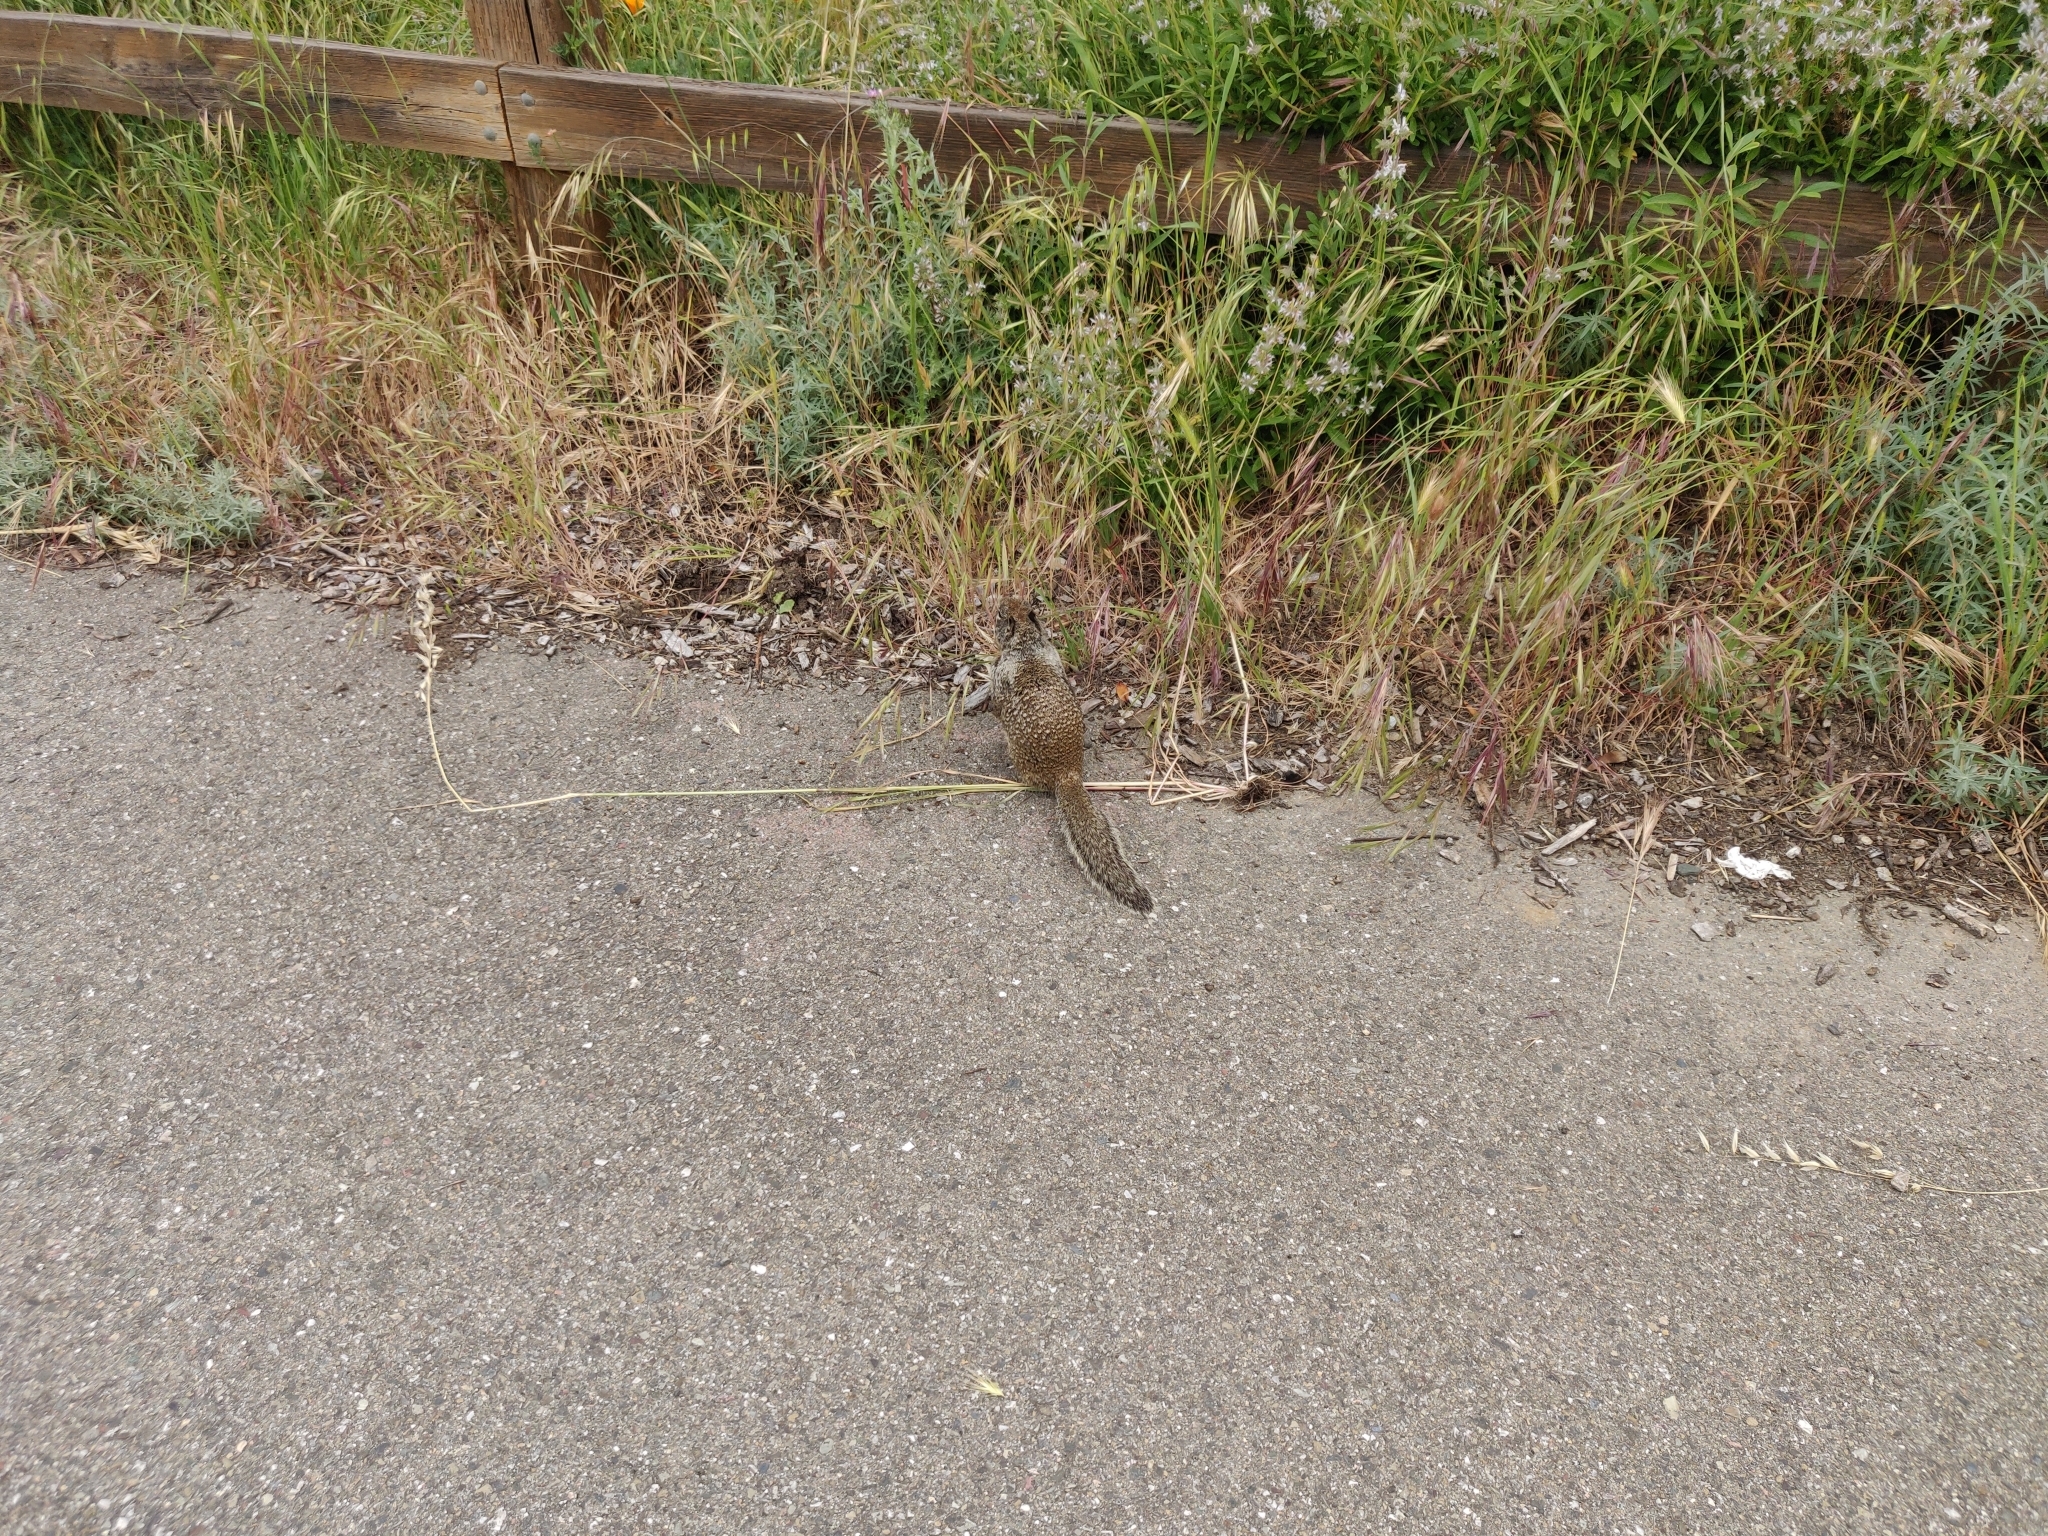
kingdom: Animalia
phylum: Chordata
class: Mammalia
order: Rodentia
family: Sciuridae
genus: Otospermophilus
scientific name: Otospermophilus beecheyi
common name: California ground squirrel
